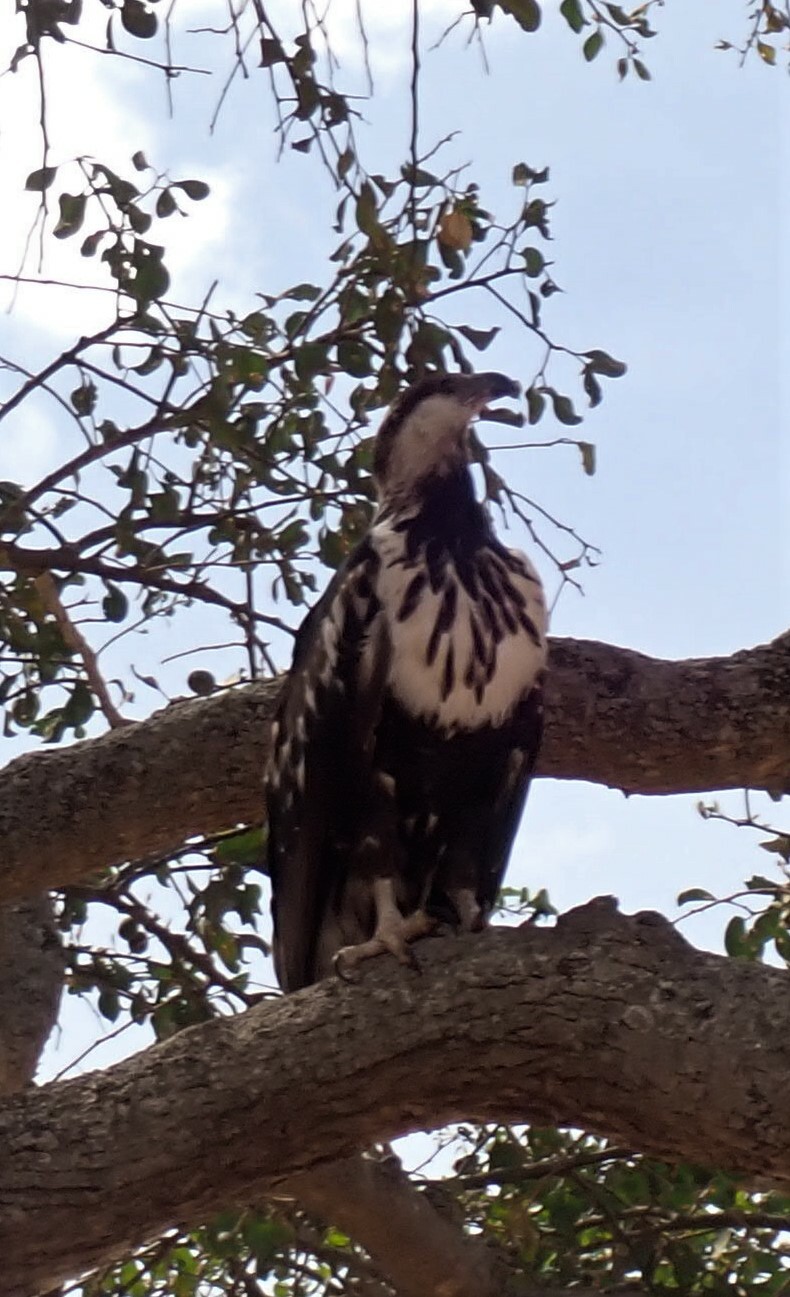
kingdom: Animalia
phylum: Chordata
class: Aves
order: Accipitriformes
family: Accipitridae
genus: Haliaeetus
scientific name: Haliaeetus vocifer
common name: African fish eagle
